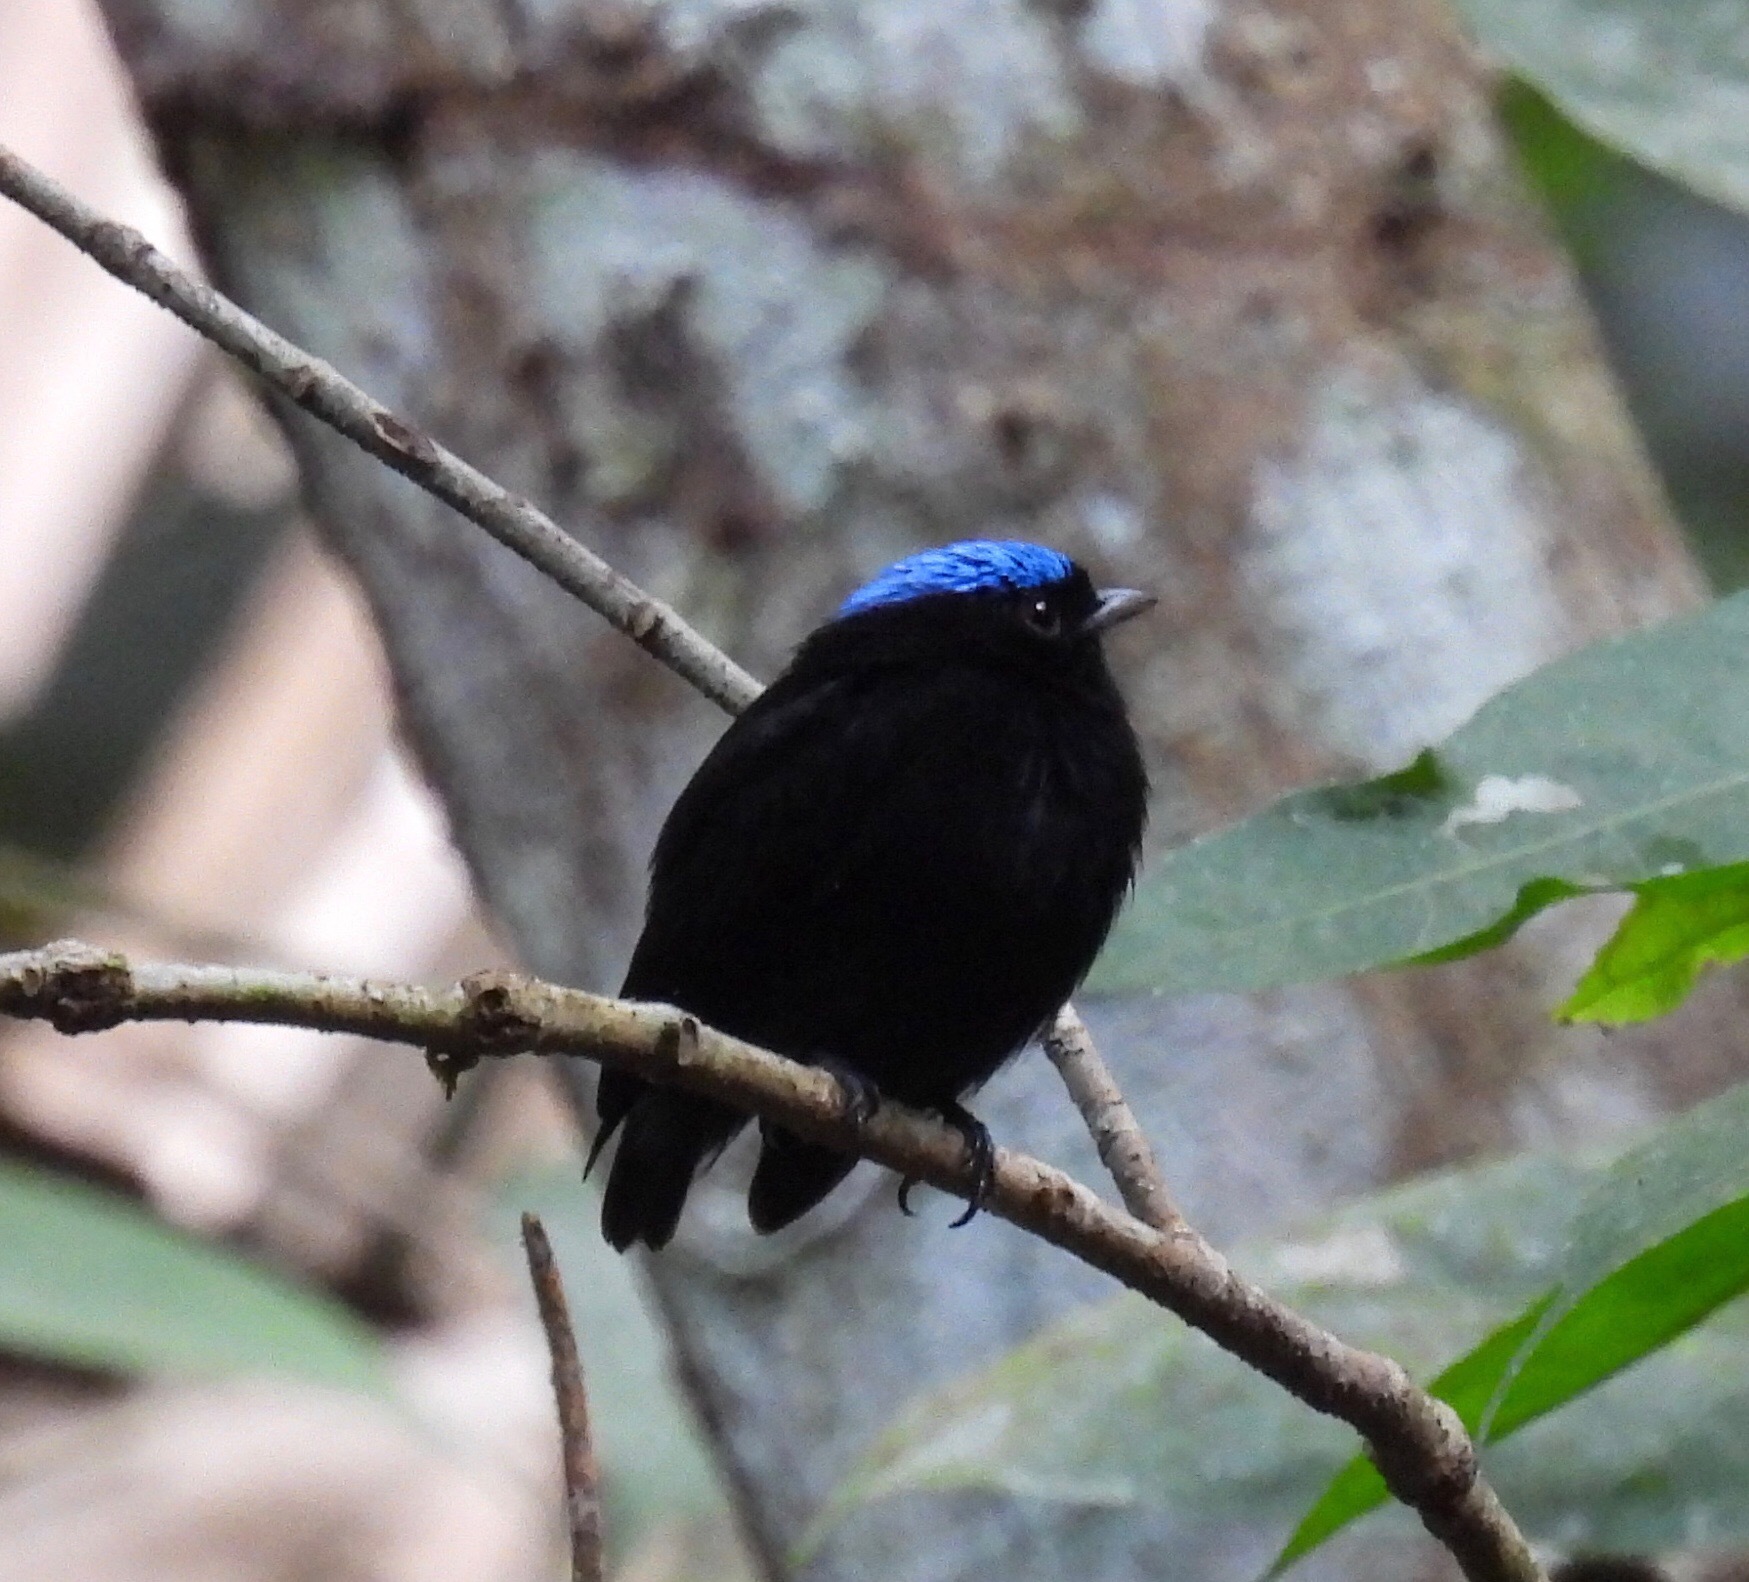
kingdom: Animalia
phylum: Chordata
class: Aves
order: Passeriformes
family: Pipridae
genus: Lepidothrix
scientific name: Lepidothrix coronata
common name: Blue-crowned manakin
